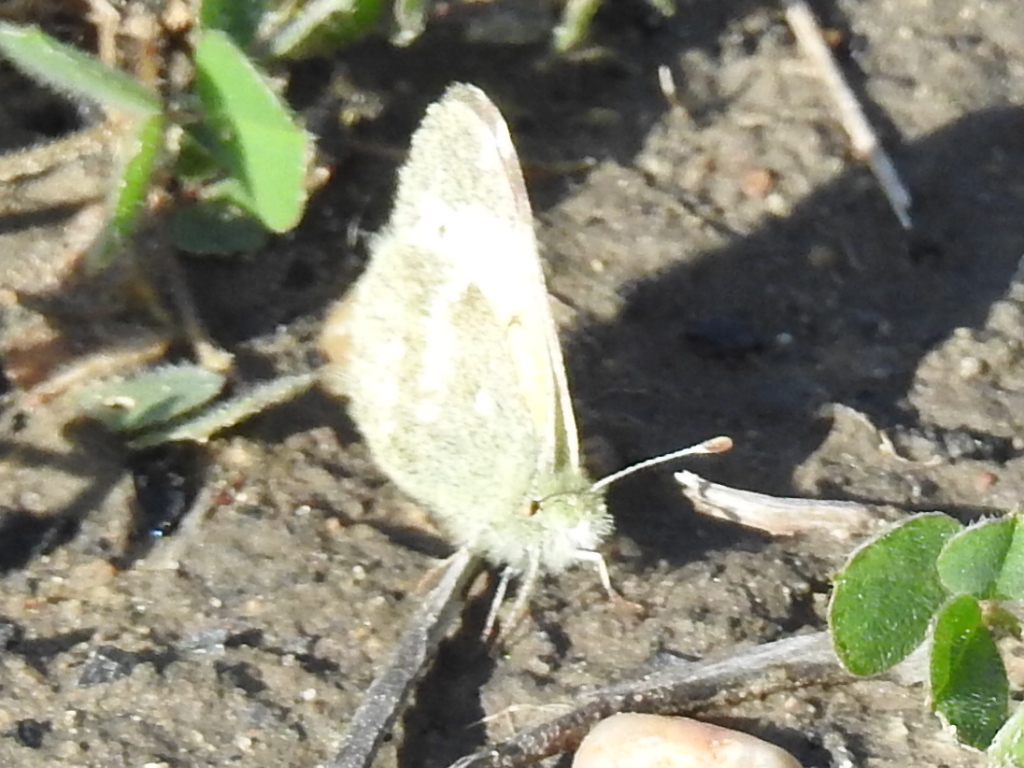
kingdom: Animalia
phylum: Arthropoda
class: Insecta
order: Lepidoptera
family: Pieridae
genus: Nathalis
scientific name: Nathalis iole
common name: Dainty sulphur
